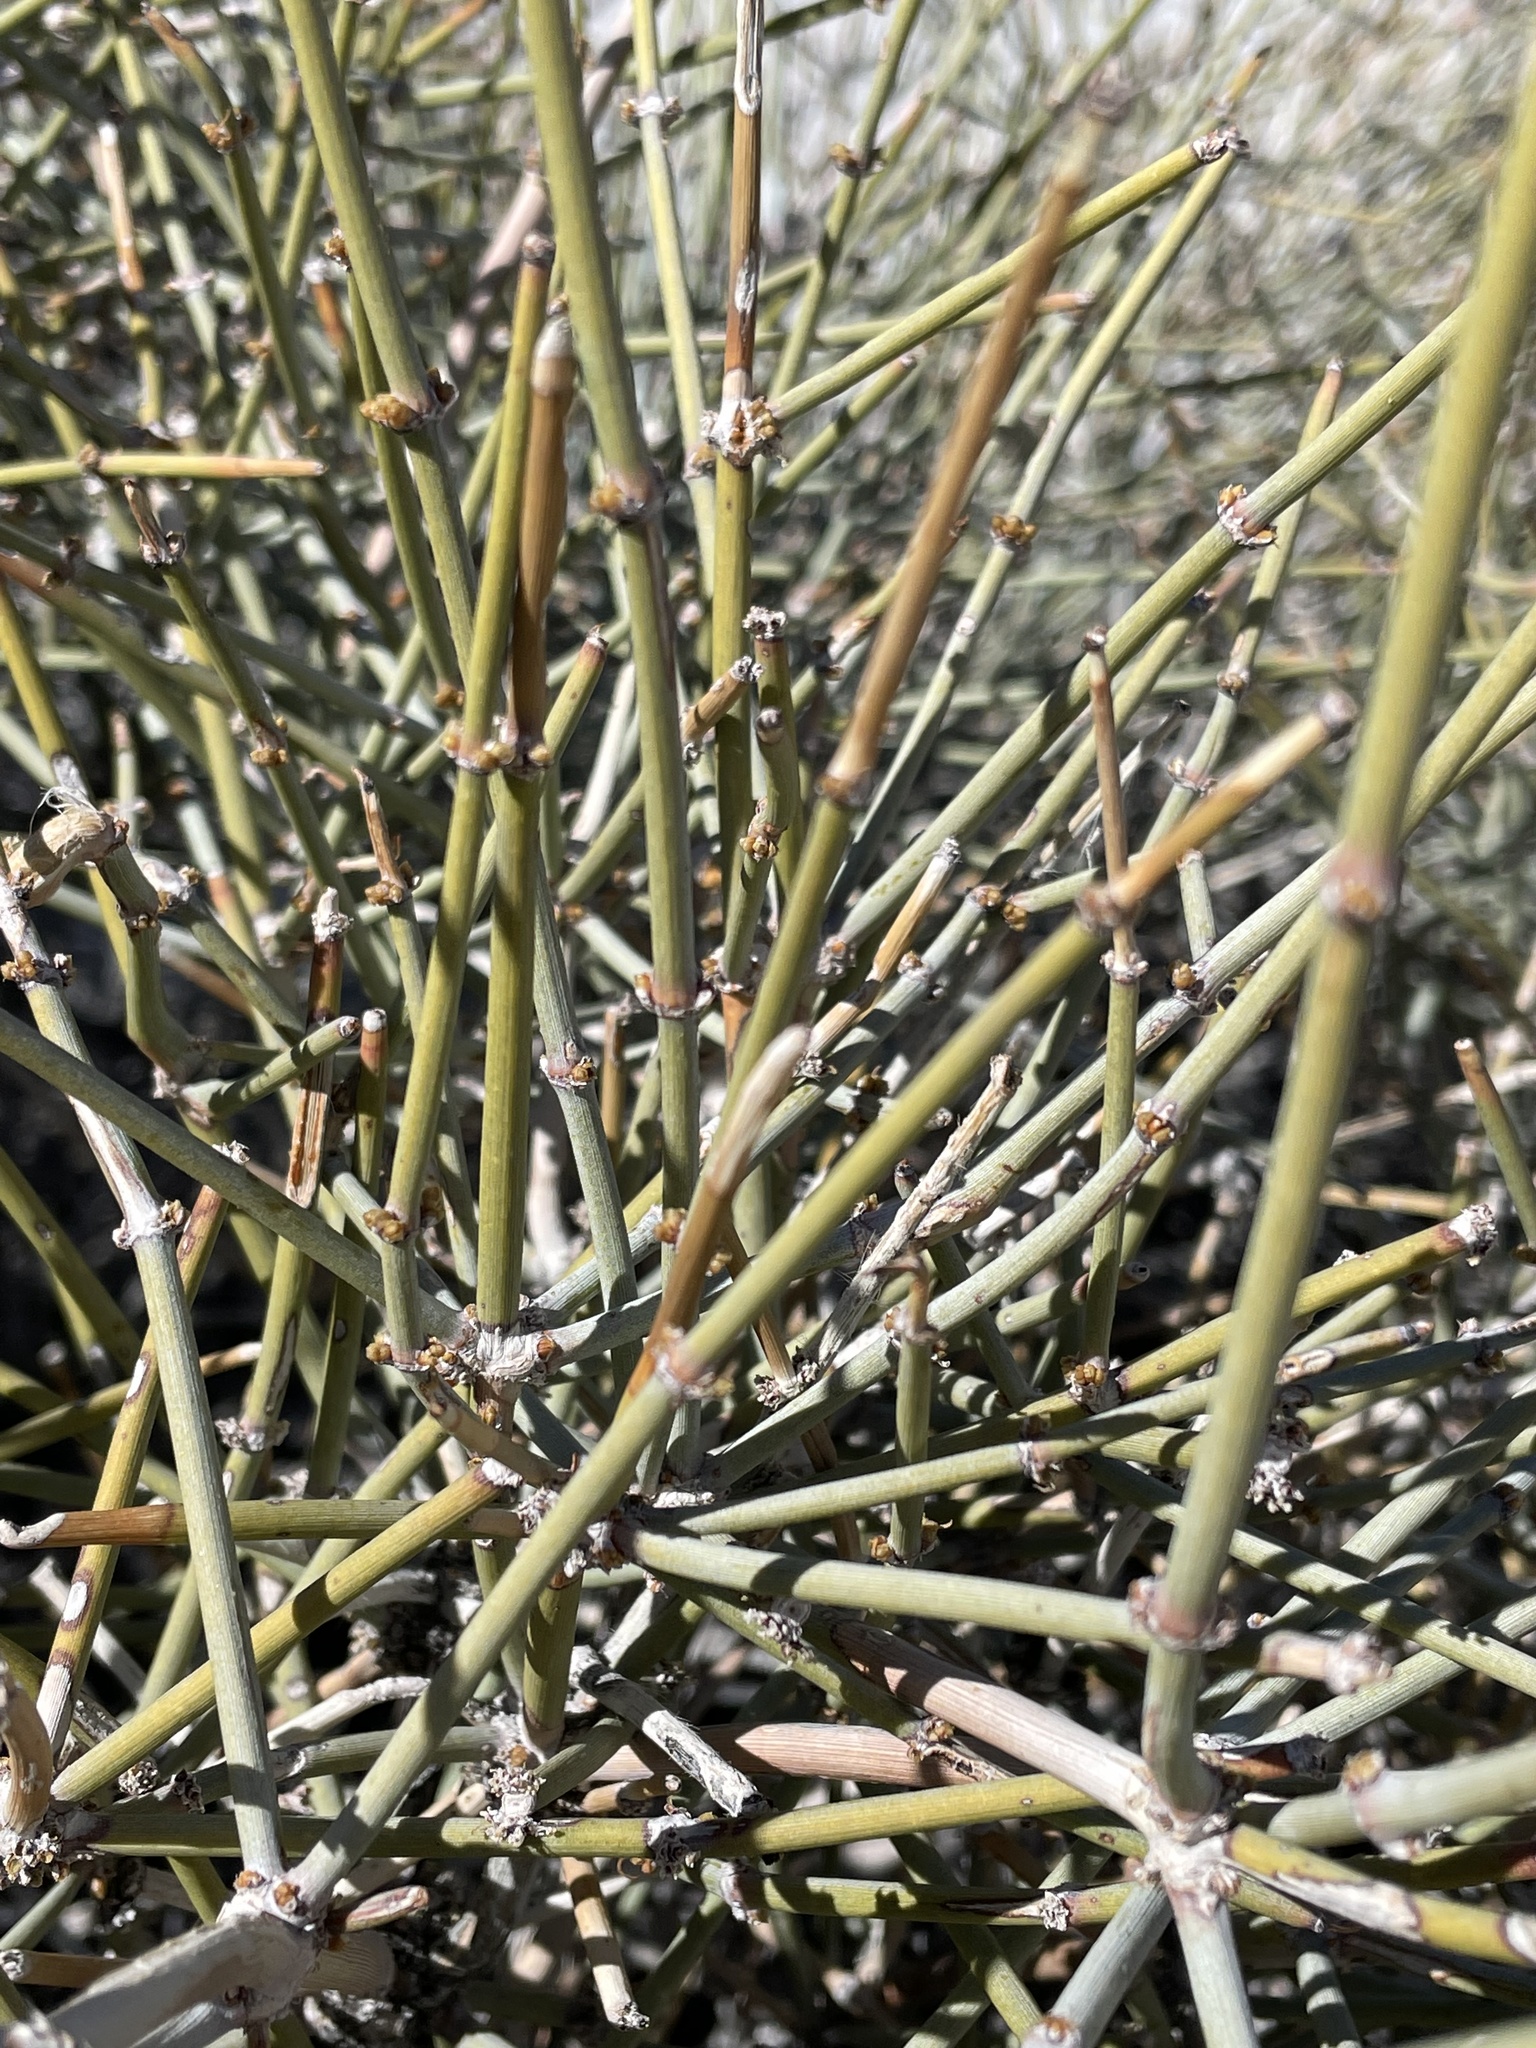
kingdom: Plantae
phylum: Tracheophyta
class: Gnetopsida
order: Ephedrales
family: Ephedraceae
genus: Ephedra
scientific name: Ephedra nevadensis
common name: Gray ephedra
